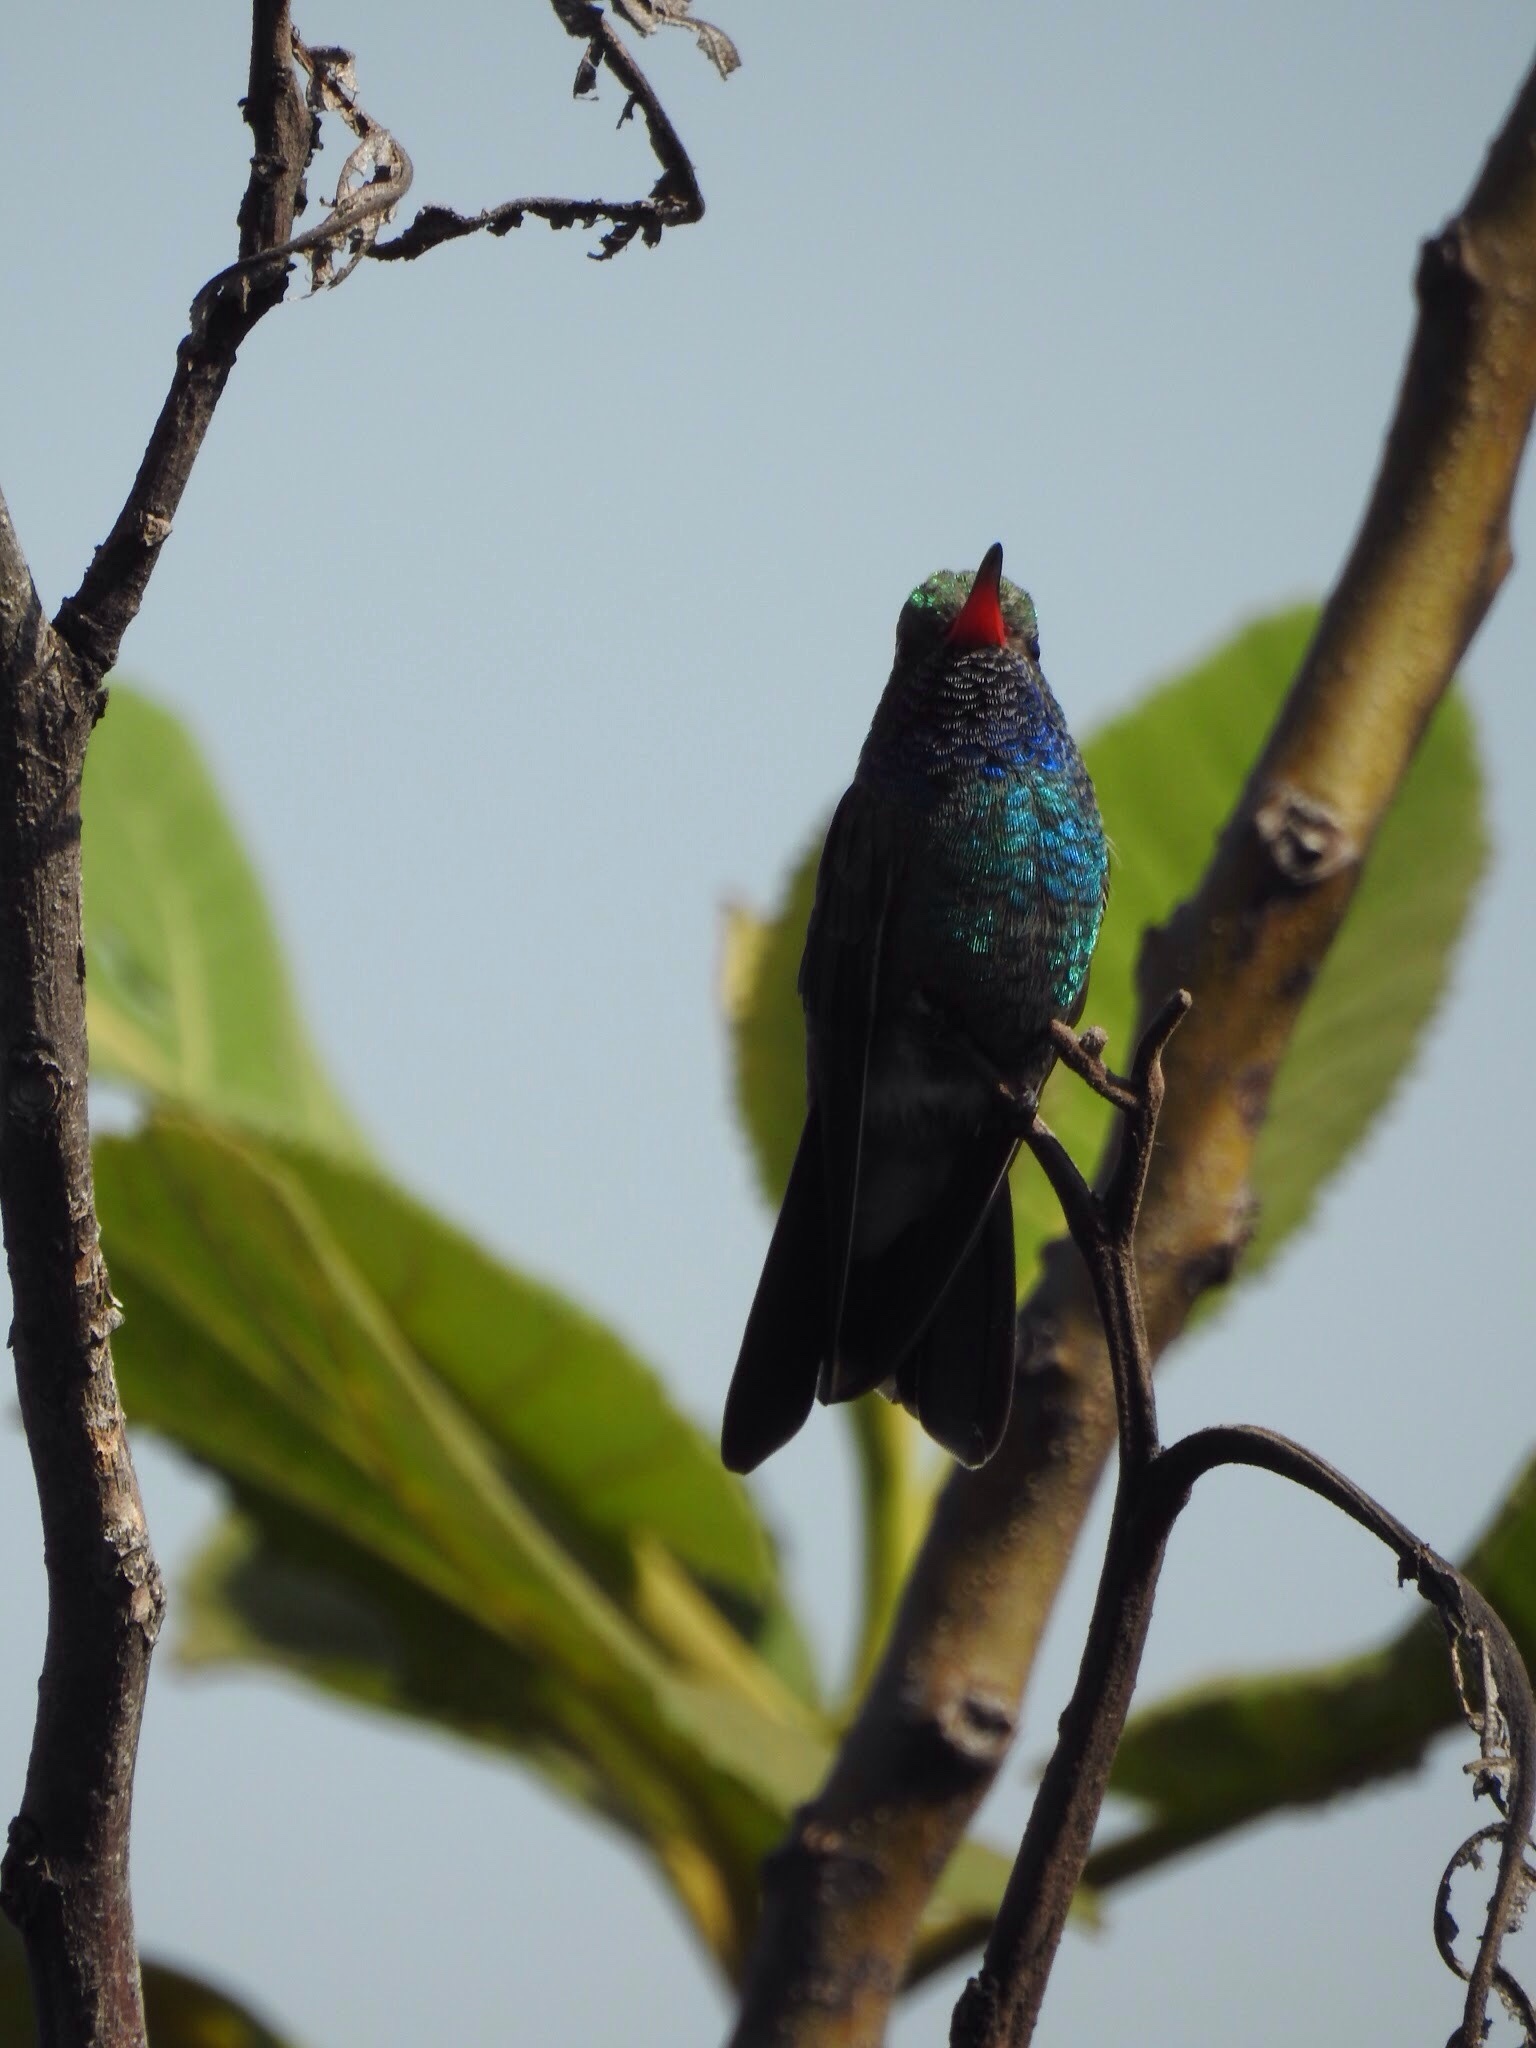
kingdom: Animalia
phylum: Chordata
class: Aves
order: Apodiformes
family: Trochilidae
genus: Cynanthus
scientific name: Cynanthus latirostris
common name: Broad-billed hummingbird
